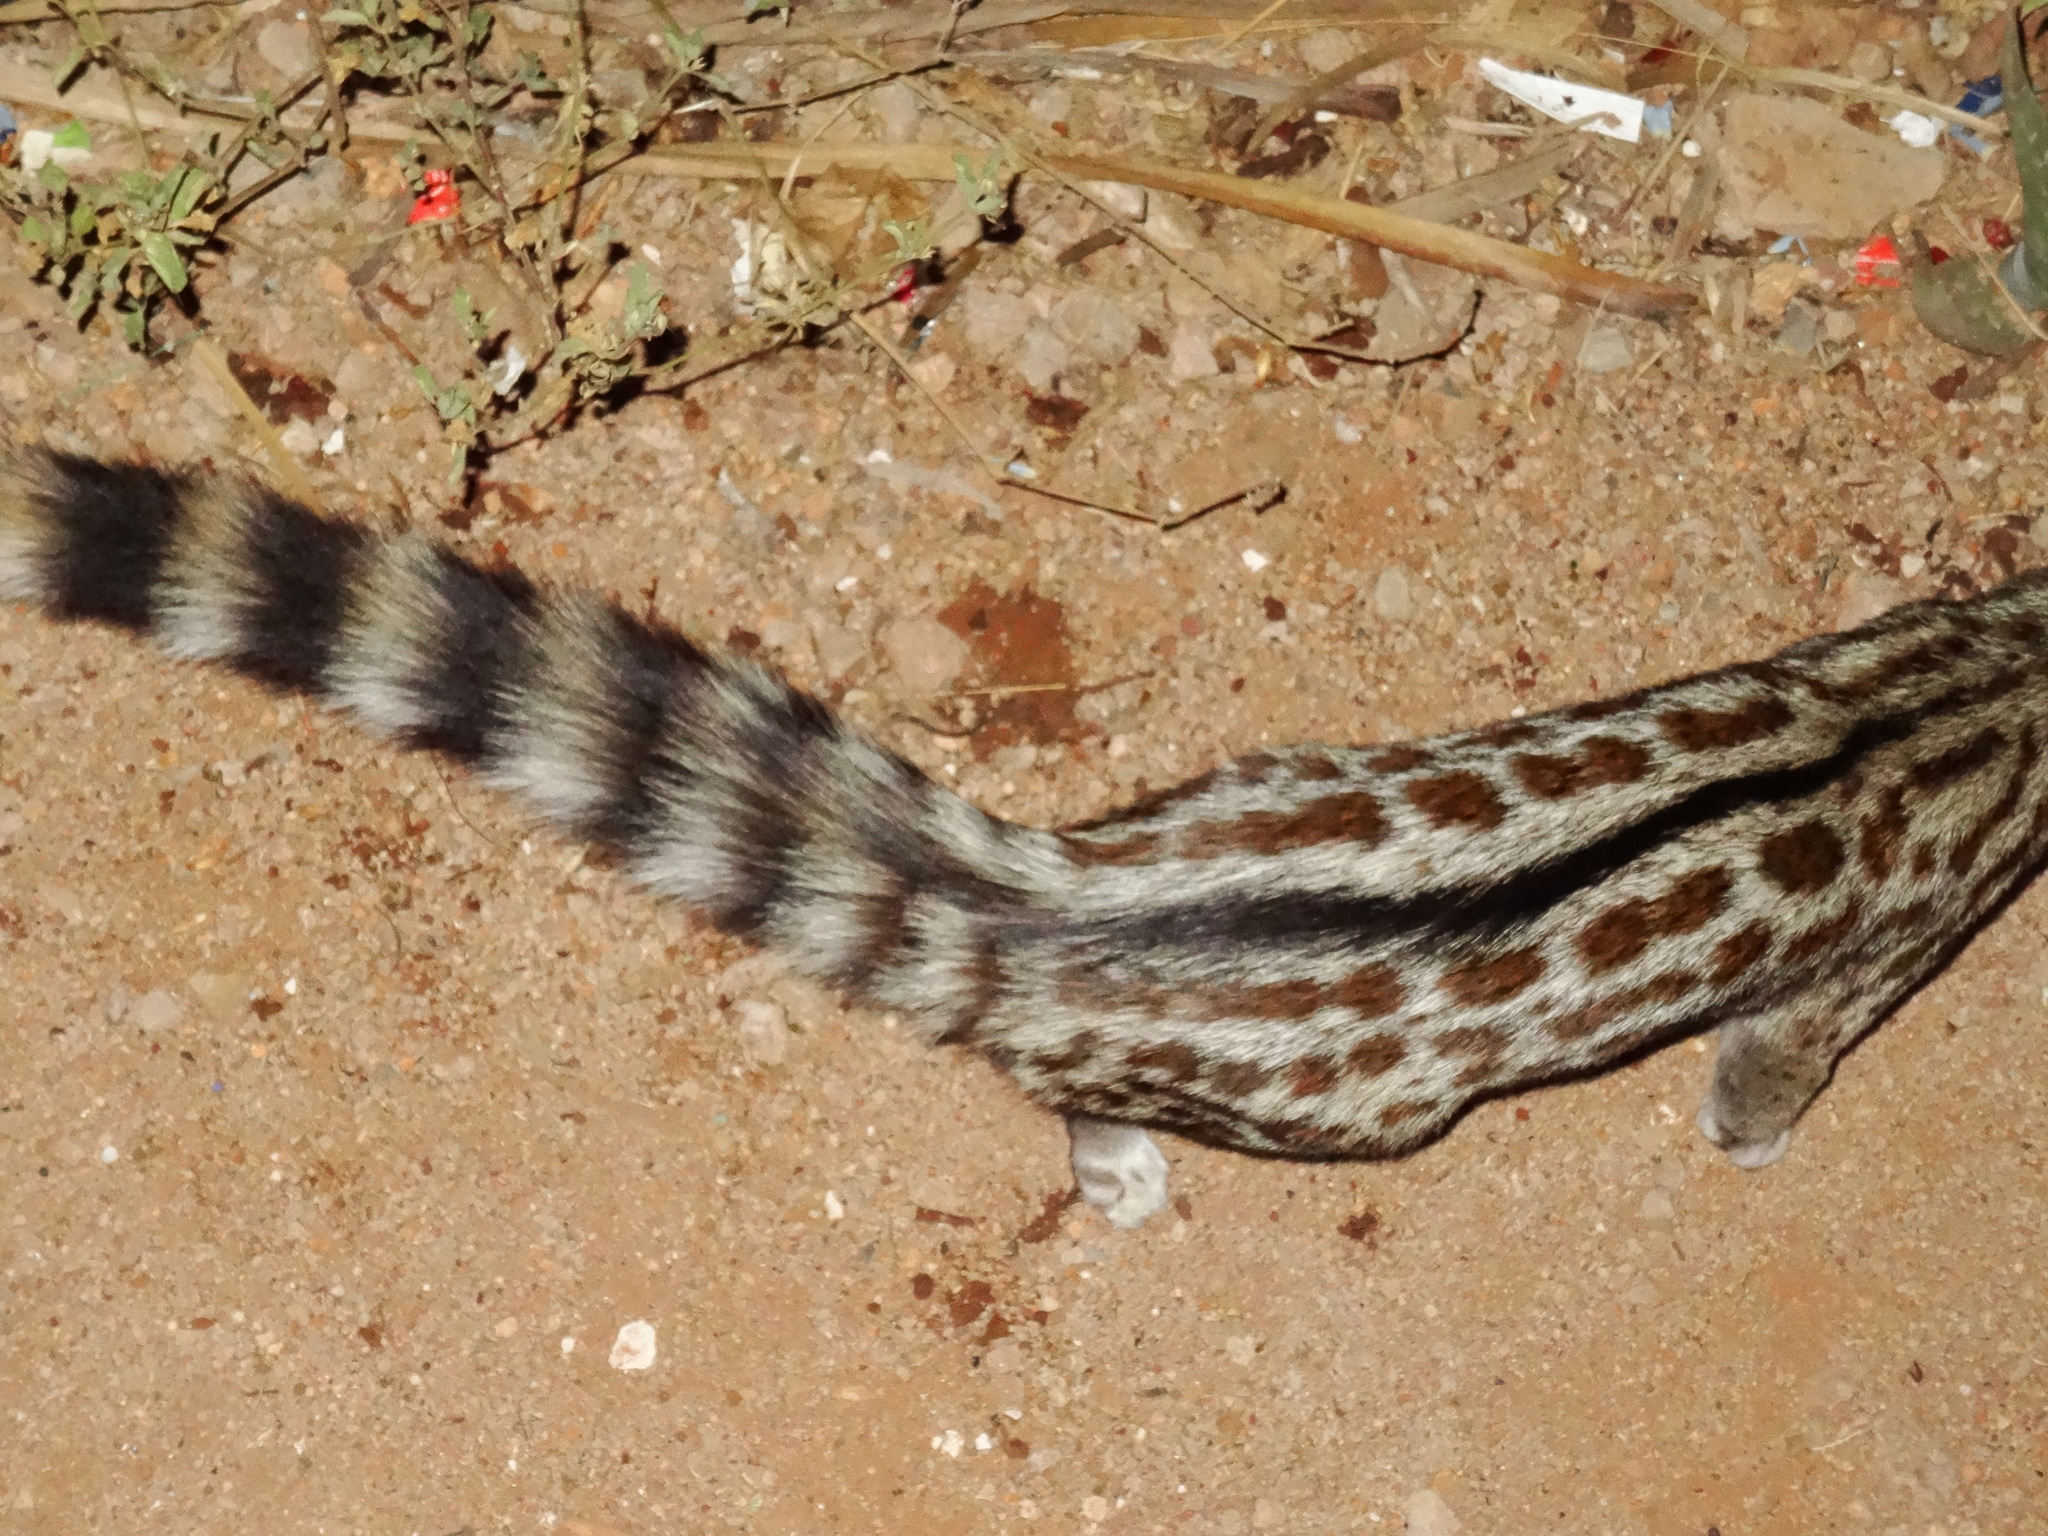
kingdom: Animalia
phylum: Chordata
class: Mammalia
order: Carnivora
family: Viverridae
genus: Genetta
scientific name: Genetta maculata
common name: Rusty-spotted genet
